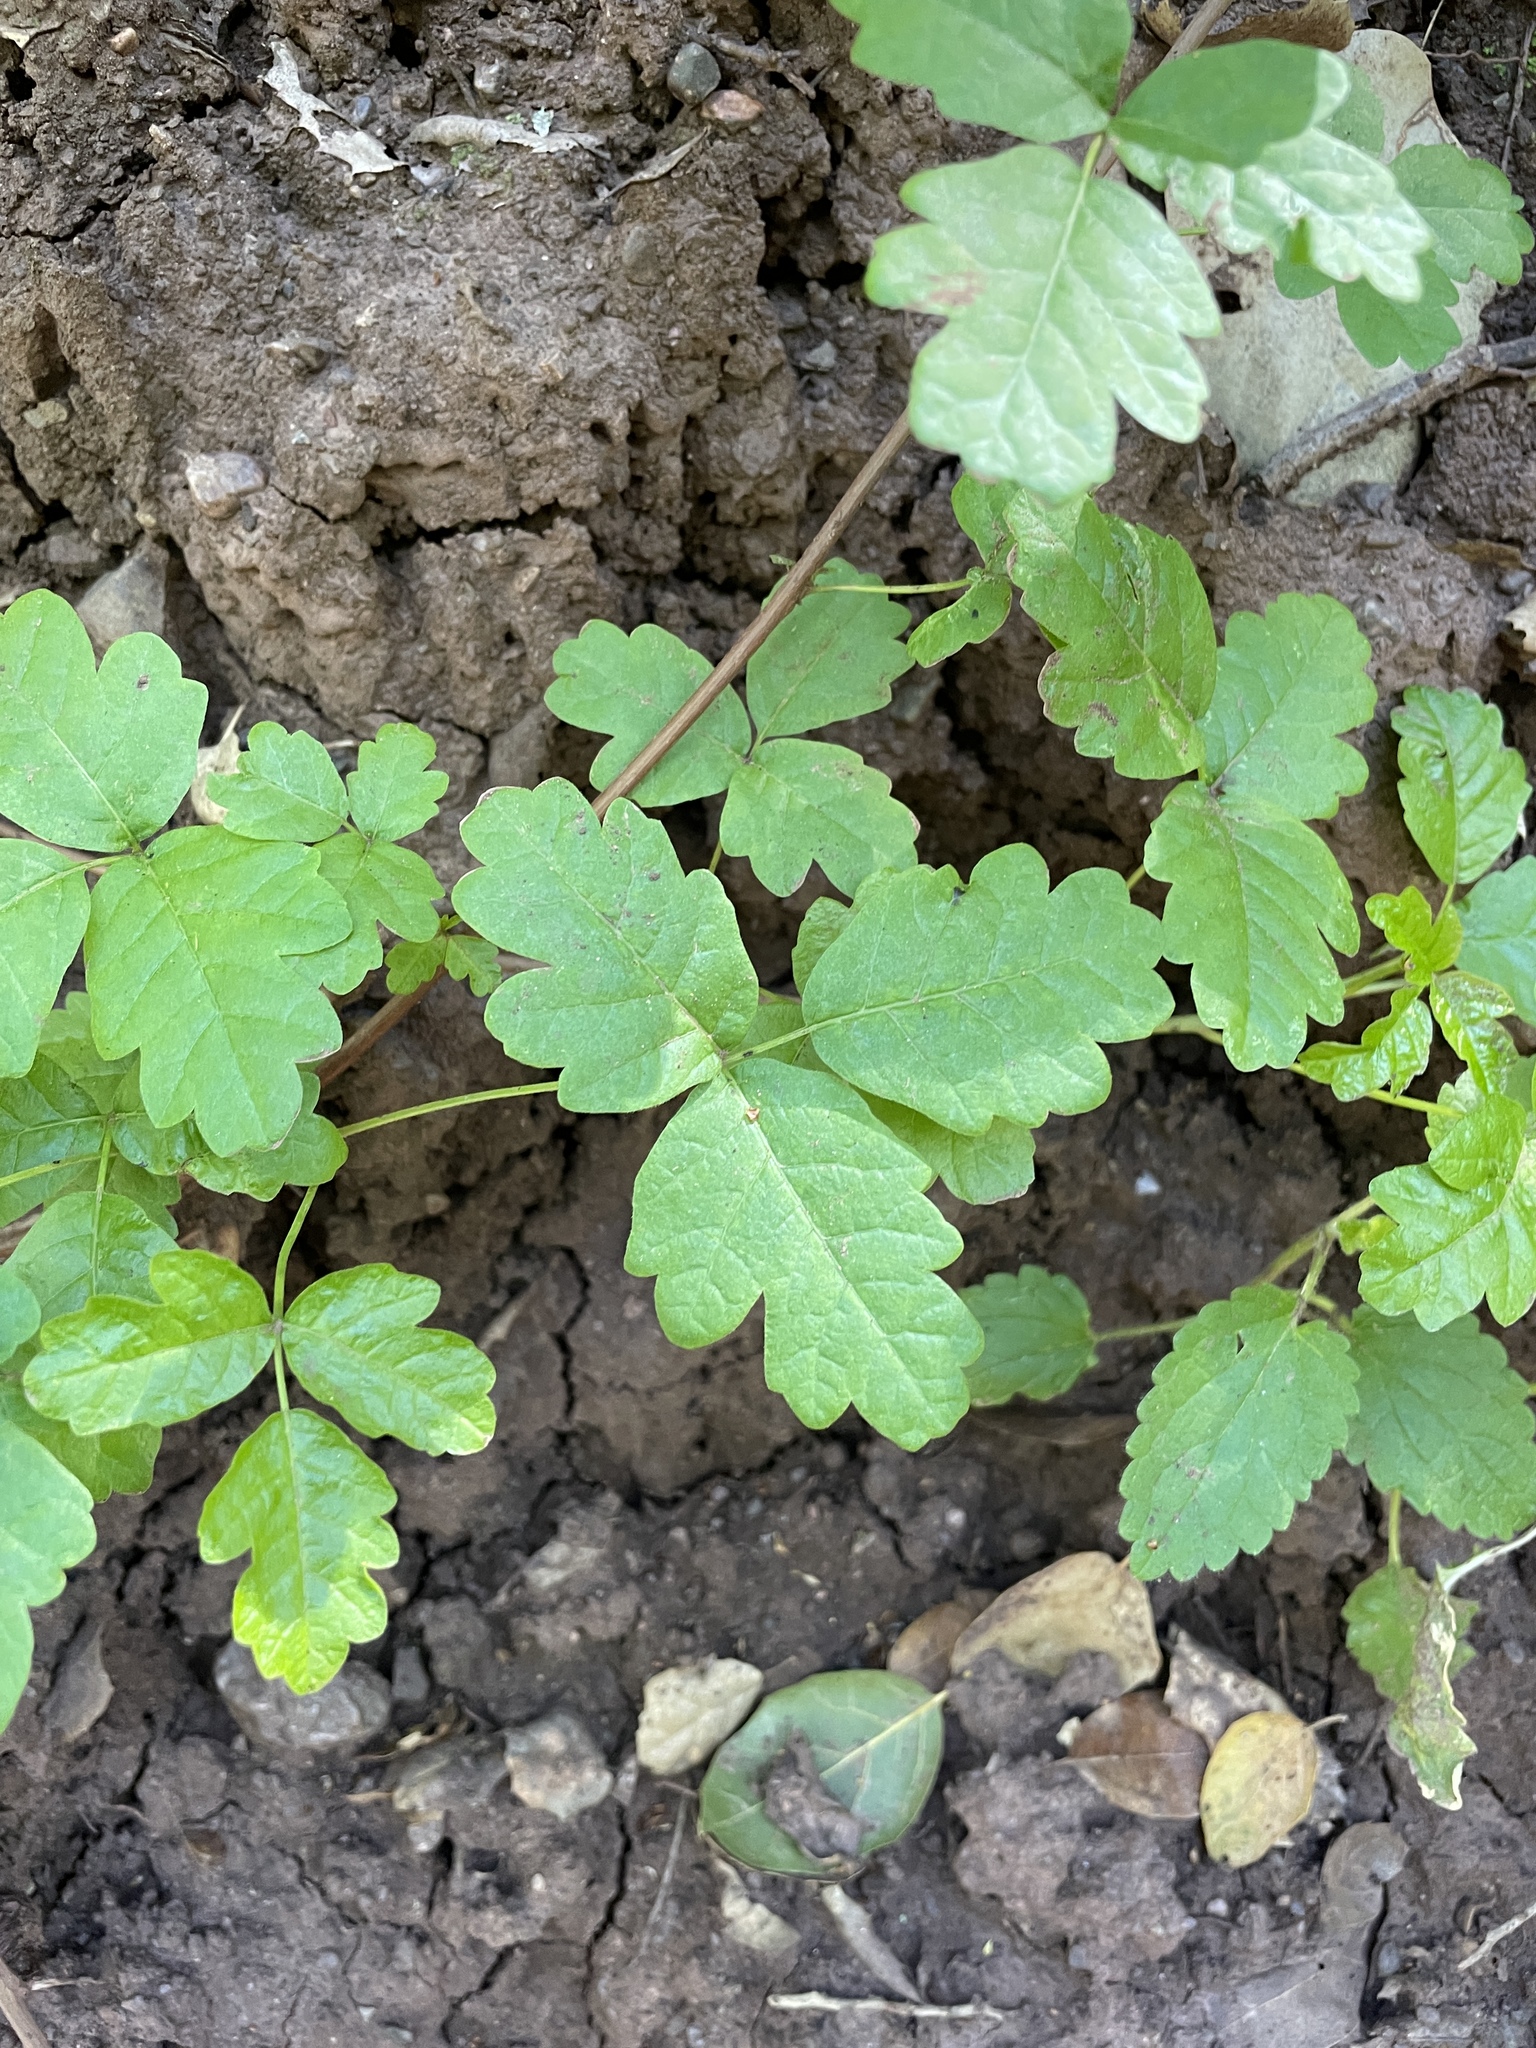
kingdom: Plantae
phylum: Tracheophyta
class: Magnoliopsida
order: Sapindales
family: Anacardiaceae
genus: Toxicodendron
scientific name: Toxicodendron diversilobum
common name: Pacific poison-oak
